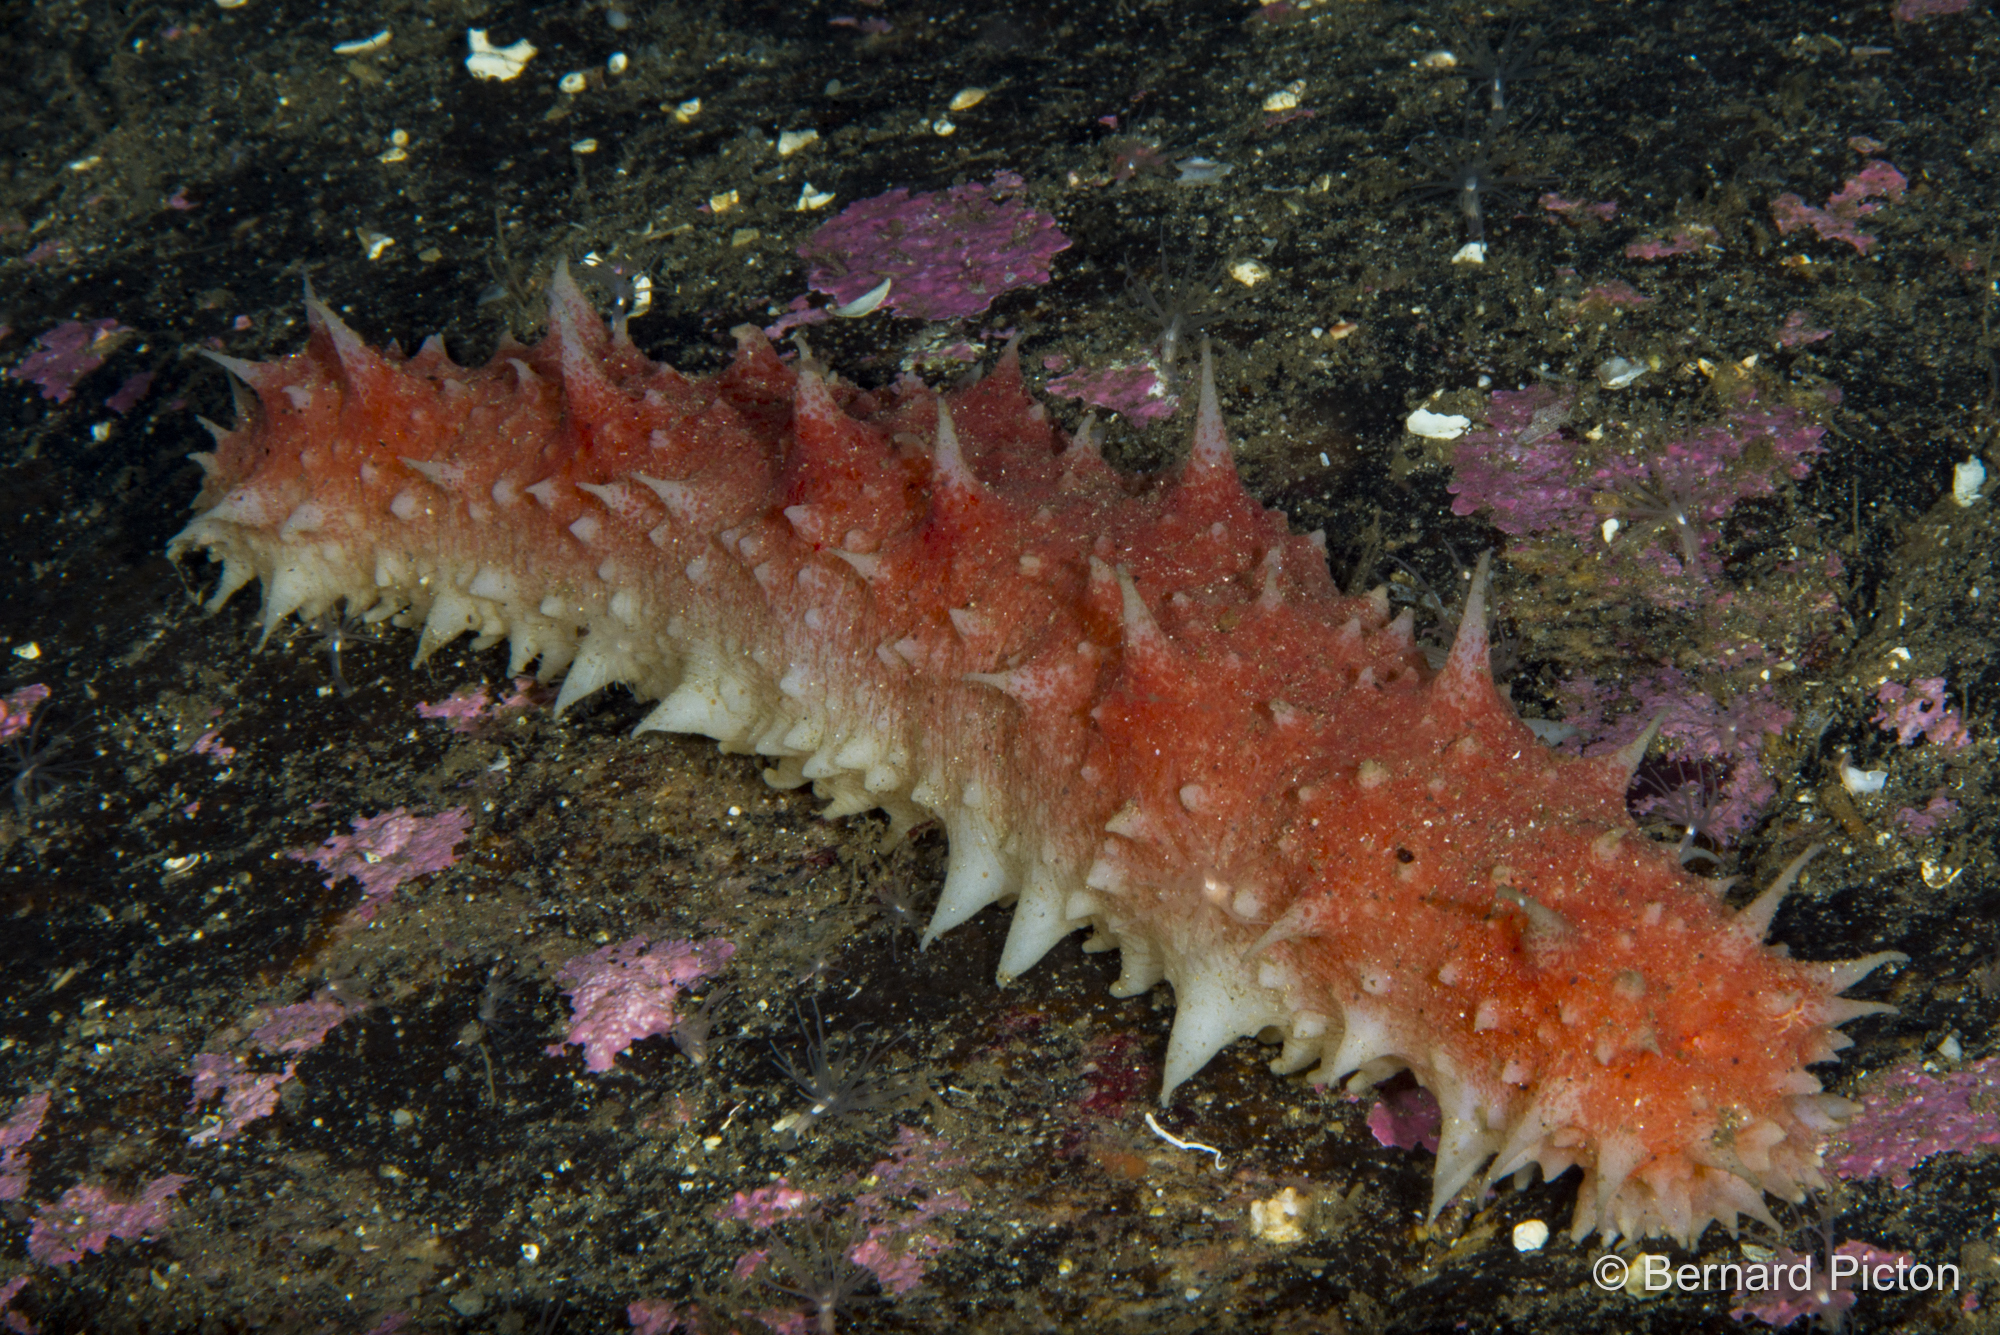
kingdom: Animalia
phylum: Echinodermata
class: Holothuroidea
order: Synallactida
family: Stichopodidae
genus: Parastichopus
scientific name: Parastichopus tremulus
